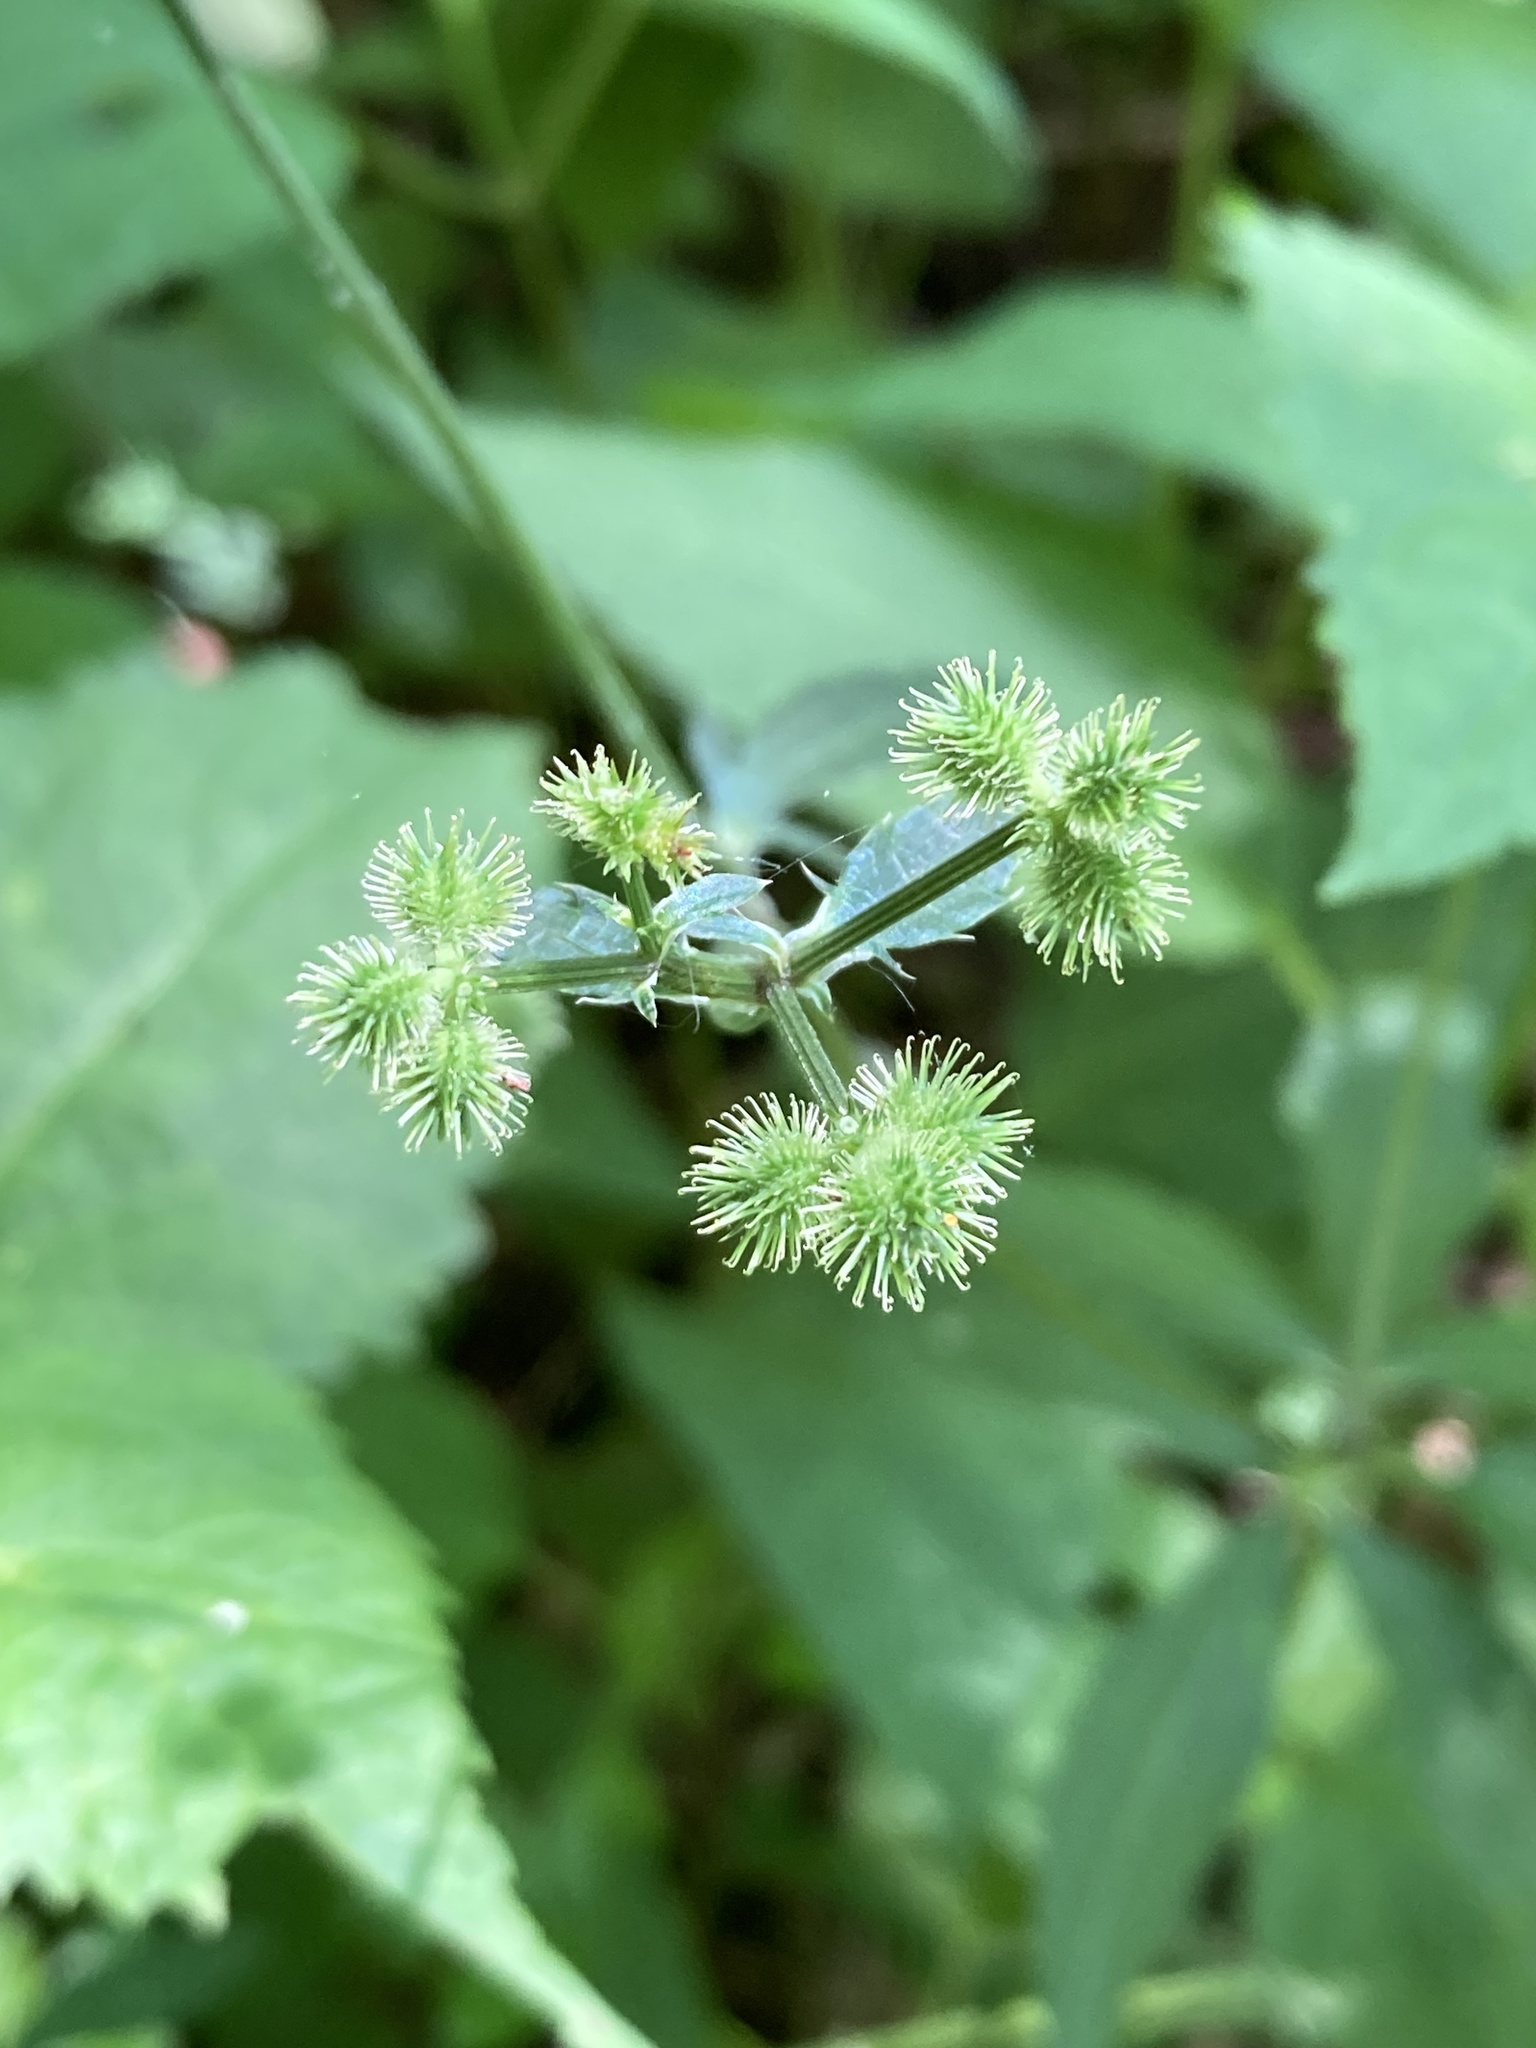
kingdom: Plantae
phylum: Tracheophyta
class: Magnoliopsida
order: Apiales
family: Apiaceae
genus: Sanicula
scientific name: Sanicula canadensis
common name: Canada sanicle
